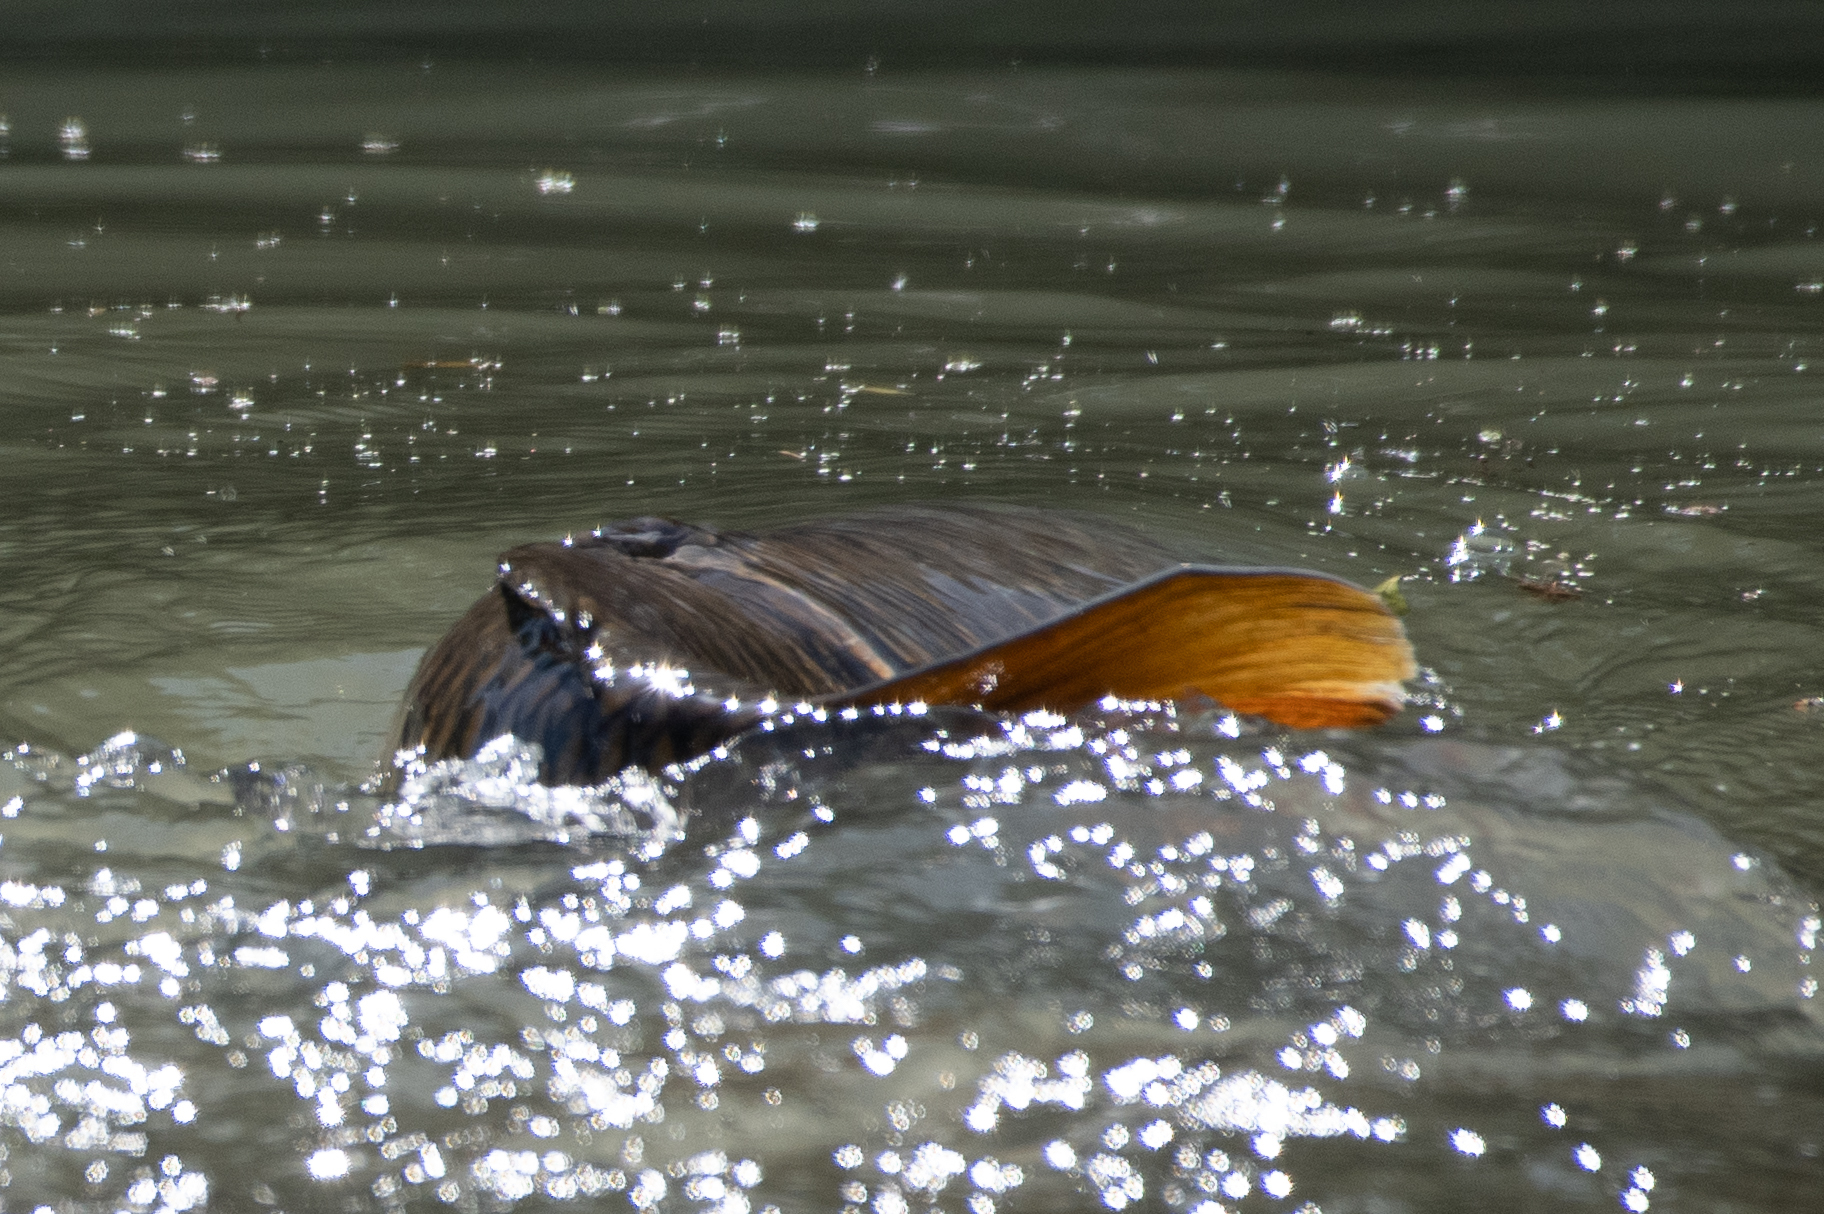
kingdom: Animalia
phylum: Chordata
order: Cypriniformes
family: Cyprinidae
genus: Cyprinus
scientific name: Cyprinus carpio
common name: Common carp
